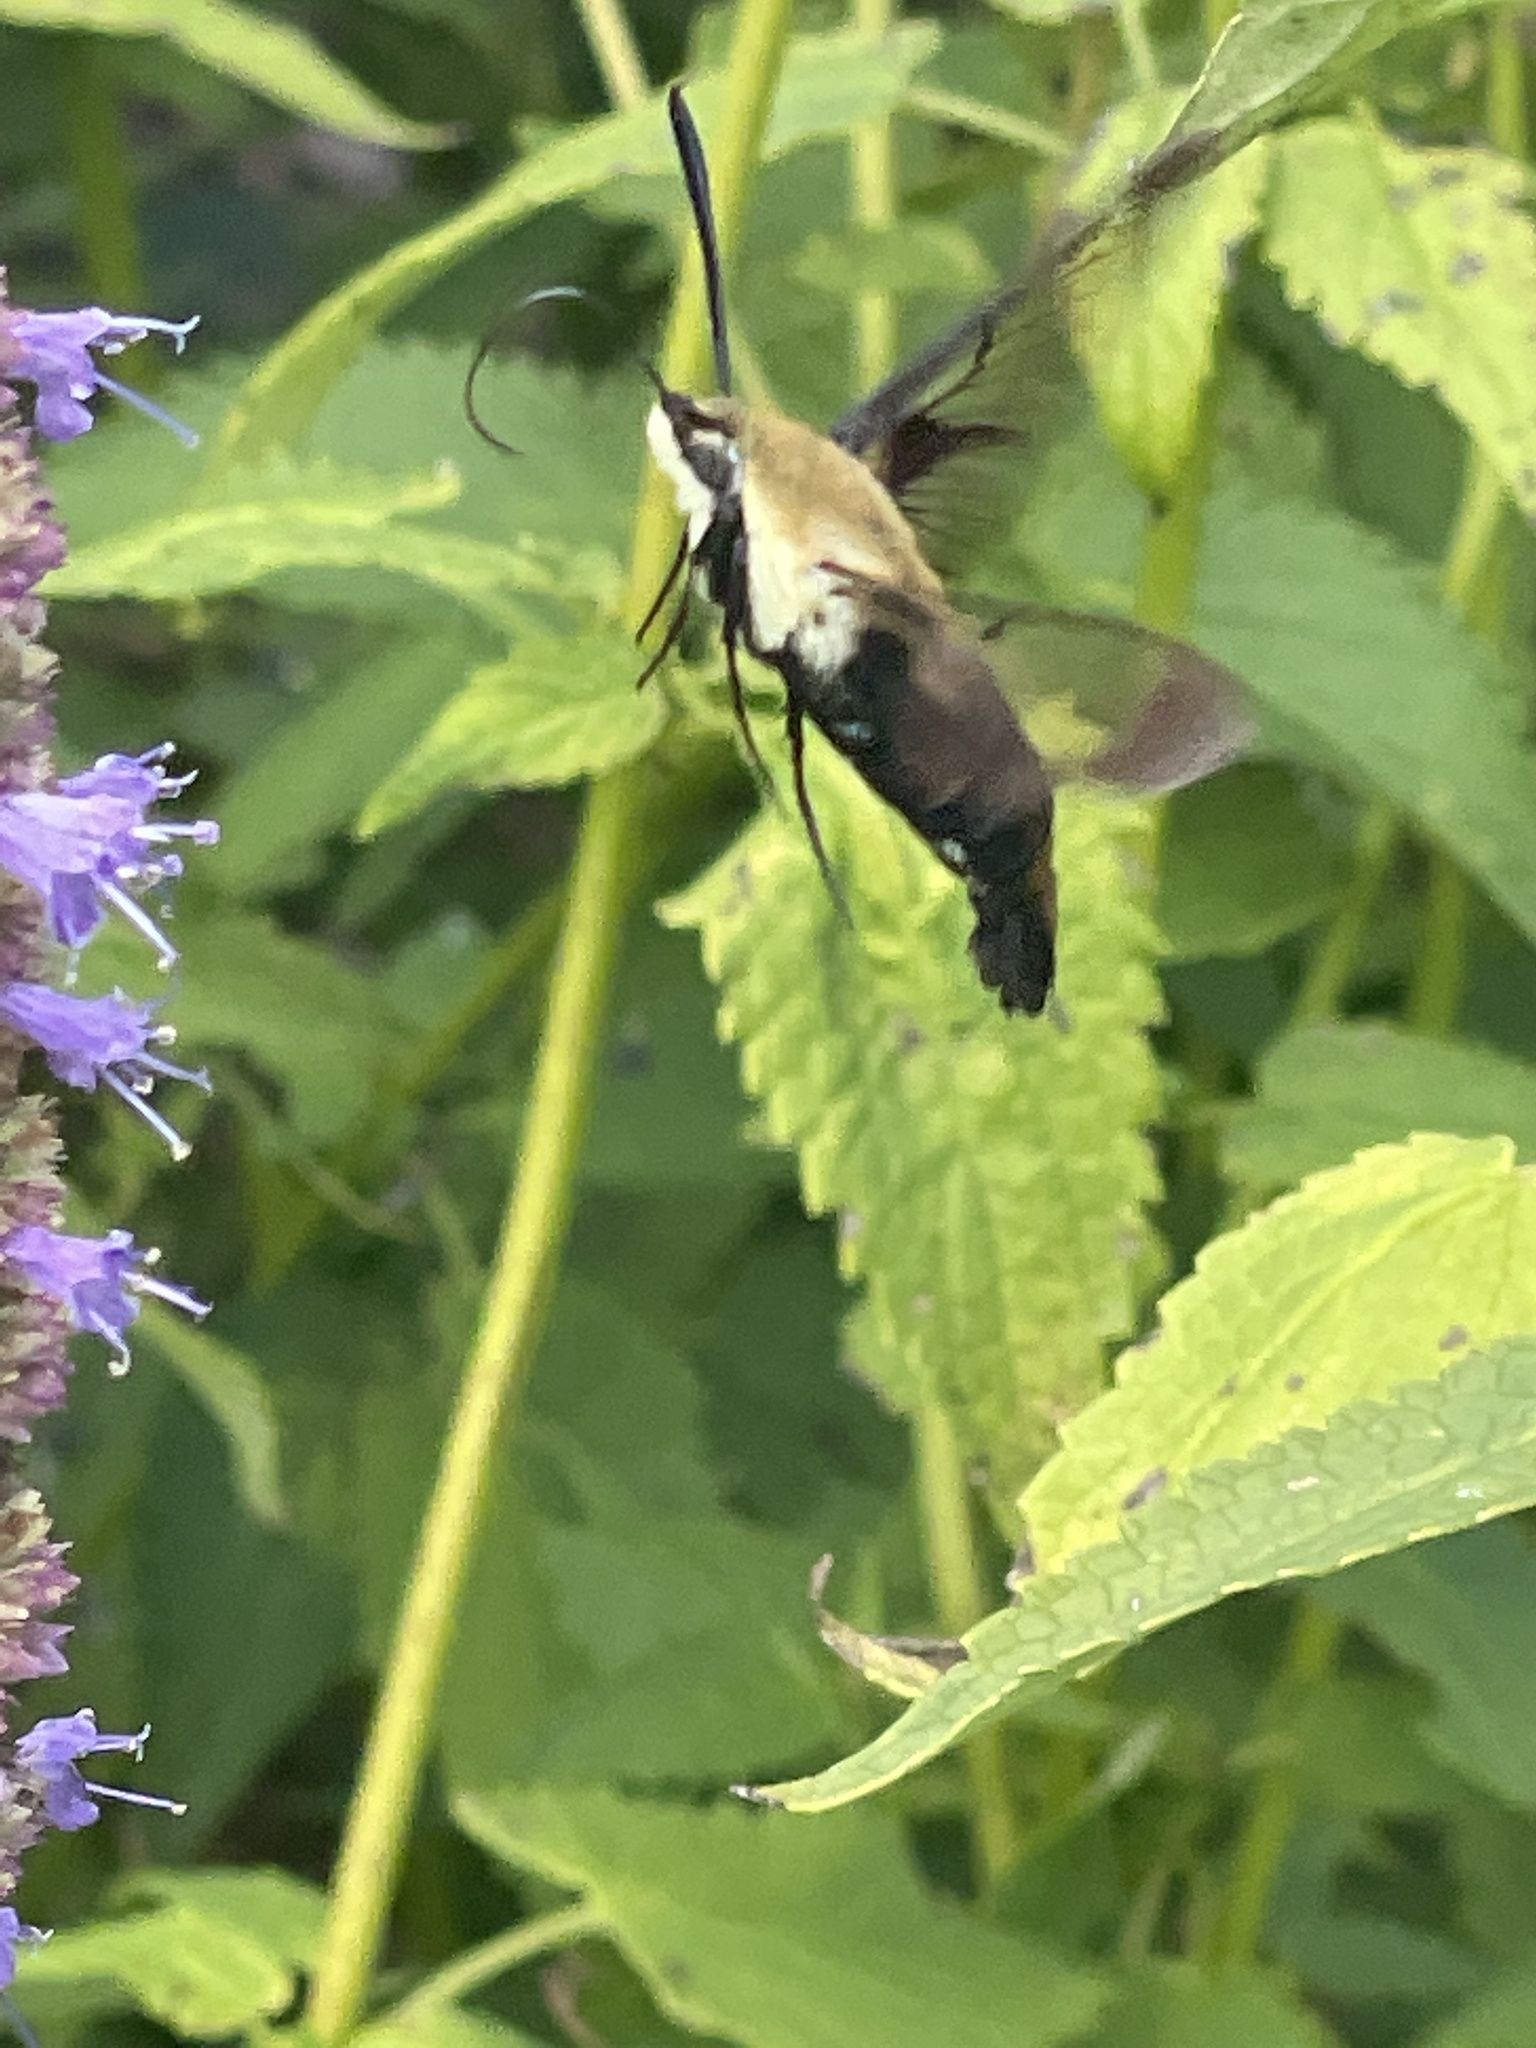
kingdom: Animalia
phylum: Arthropoda
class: Insecta
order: Lepidoptera
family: Sphingidae
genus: Hemaris
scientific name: Hemaris diffinis
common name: Bumblebee moth
